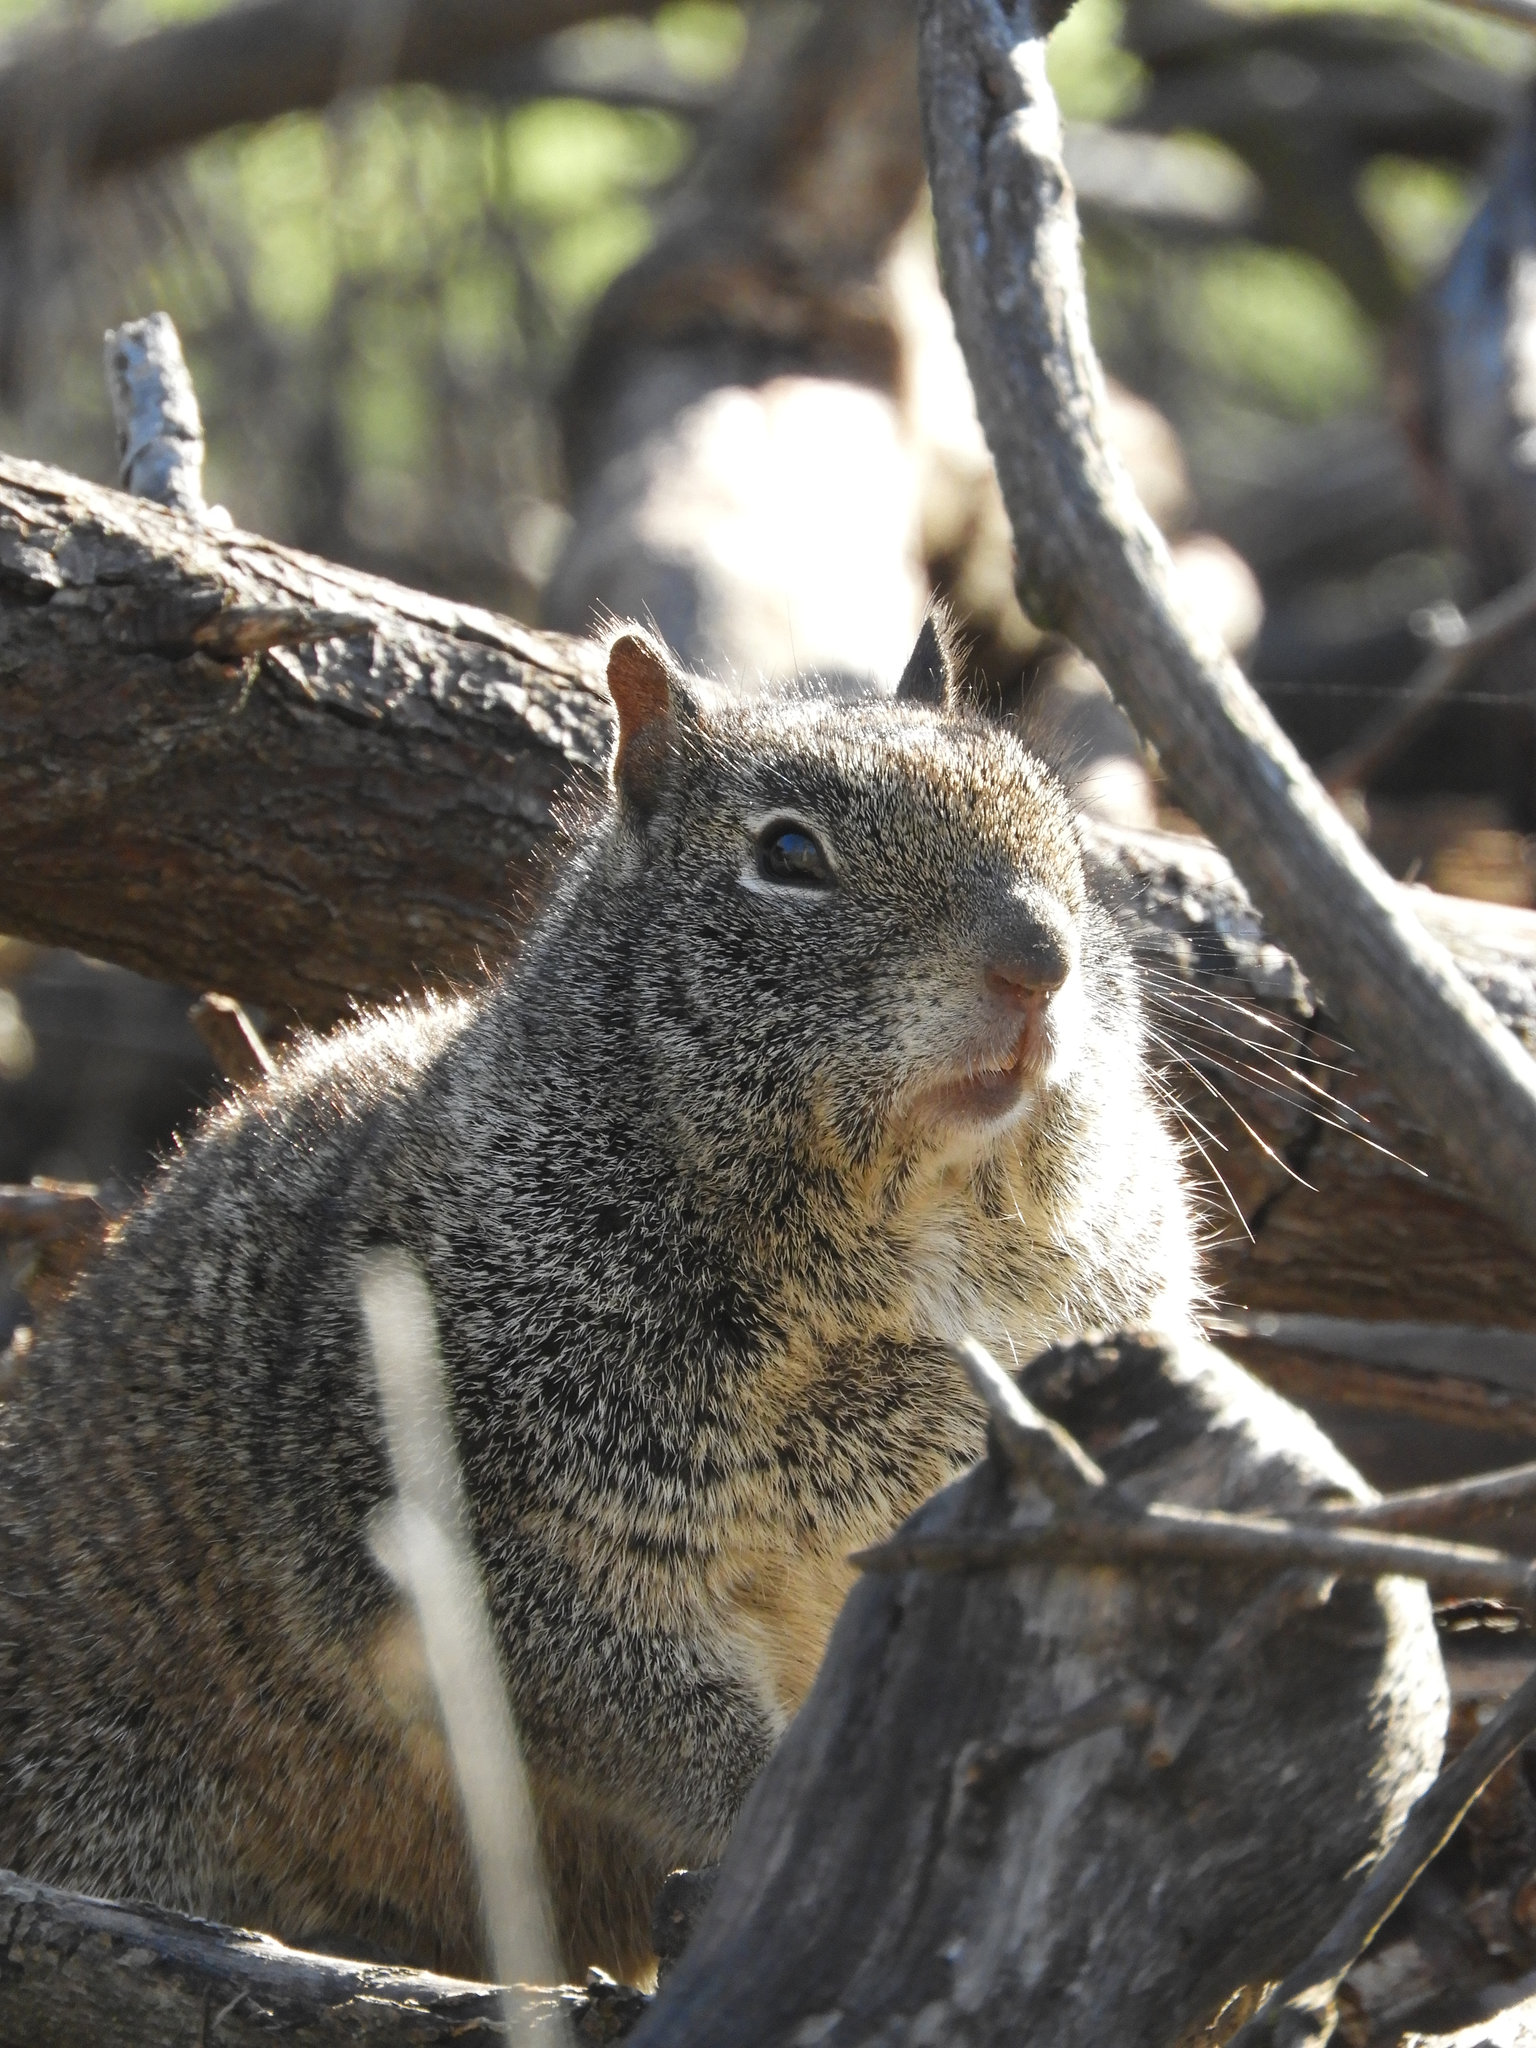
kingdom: Animalia
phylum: Chordata
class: Mammalia
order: Rodentia
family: Sciuridae
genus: Otospermophilus
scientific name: Otospermophilus beecheyi
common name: California ground squirrel
